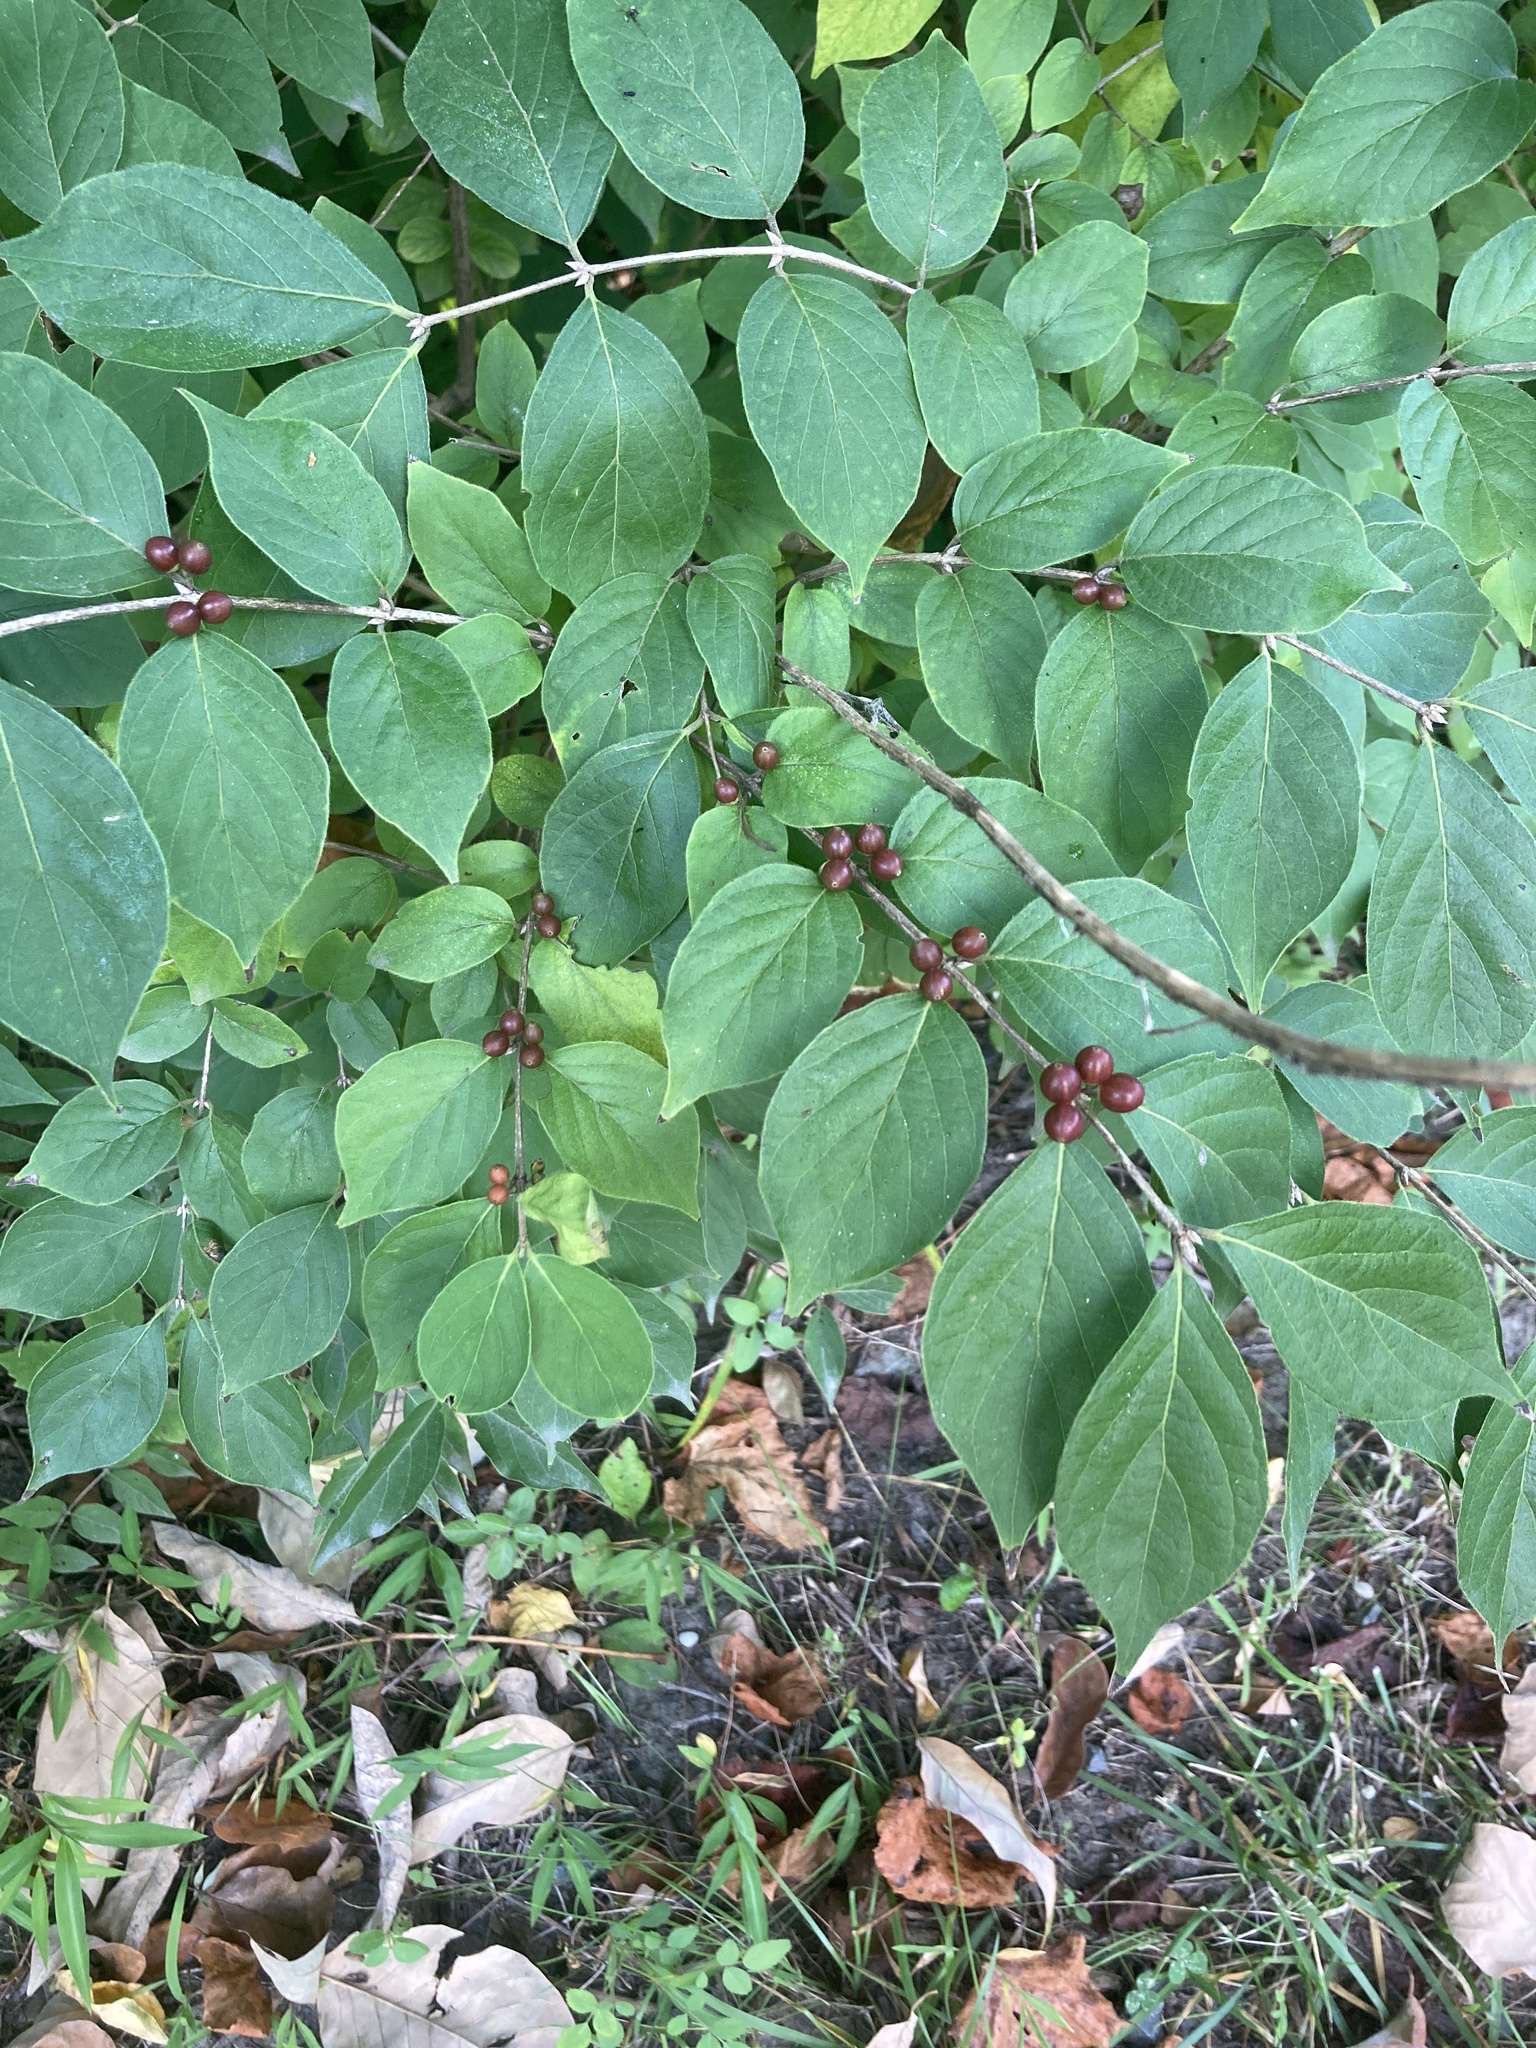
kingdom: Plantae
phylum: Tracheophyta
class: Magnoliopsida
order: Dipsacales
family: Caprifoliaceae
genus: Lonicera
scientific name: Lonicera maackii
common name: Amur honeysuckle
